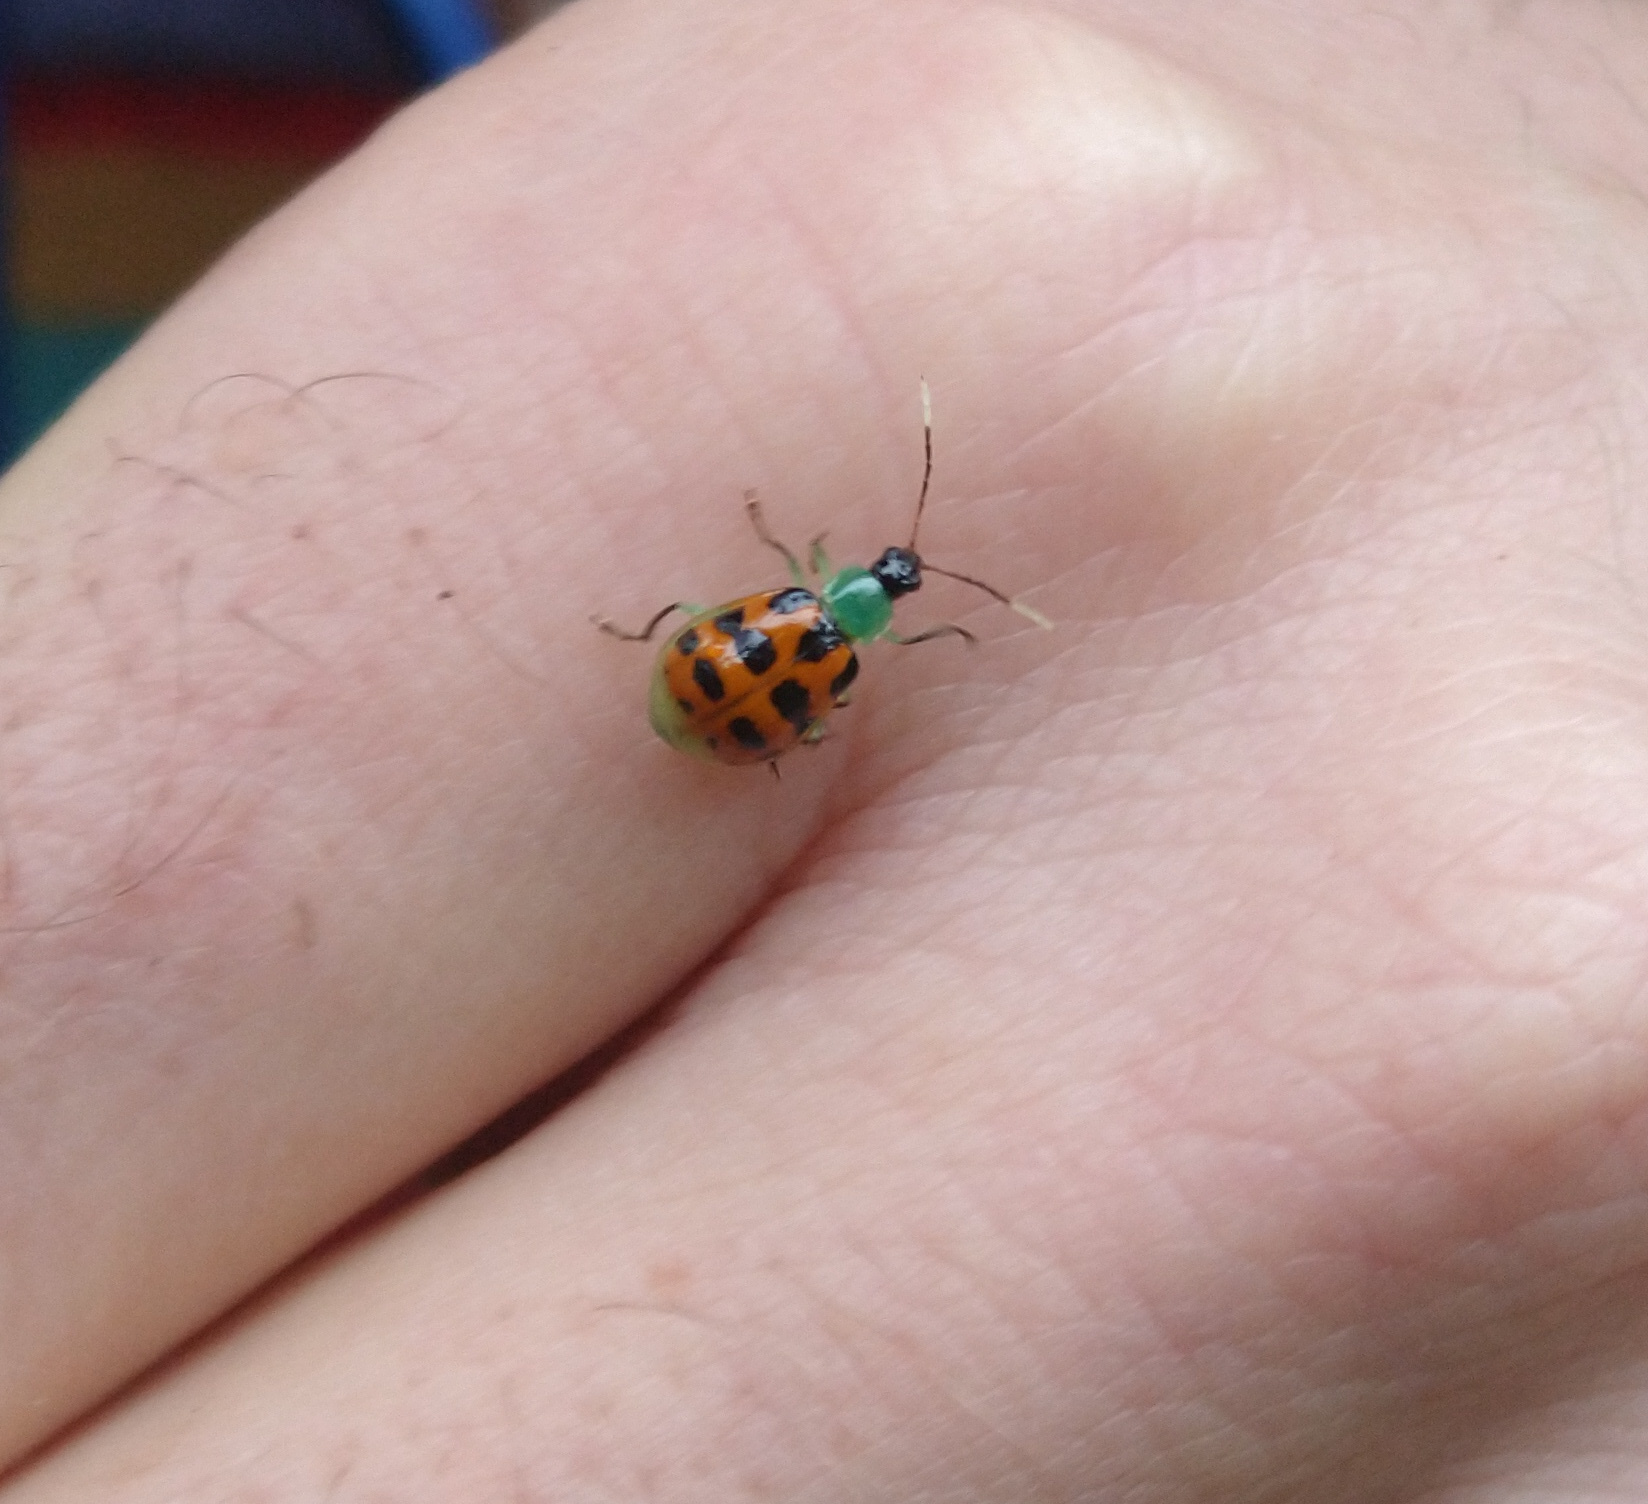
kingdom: Animalia
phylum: Arthropoda
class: Insecta
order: Coleoptera
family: Chrysomelidae
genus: Diabrotica
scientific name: Diabrotica limitata
